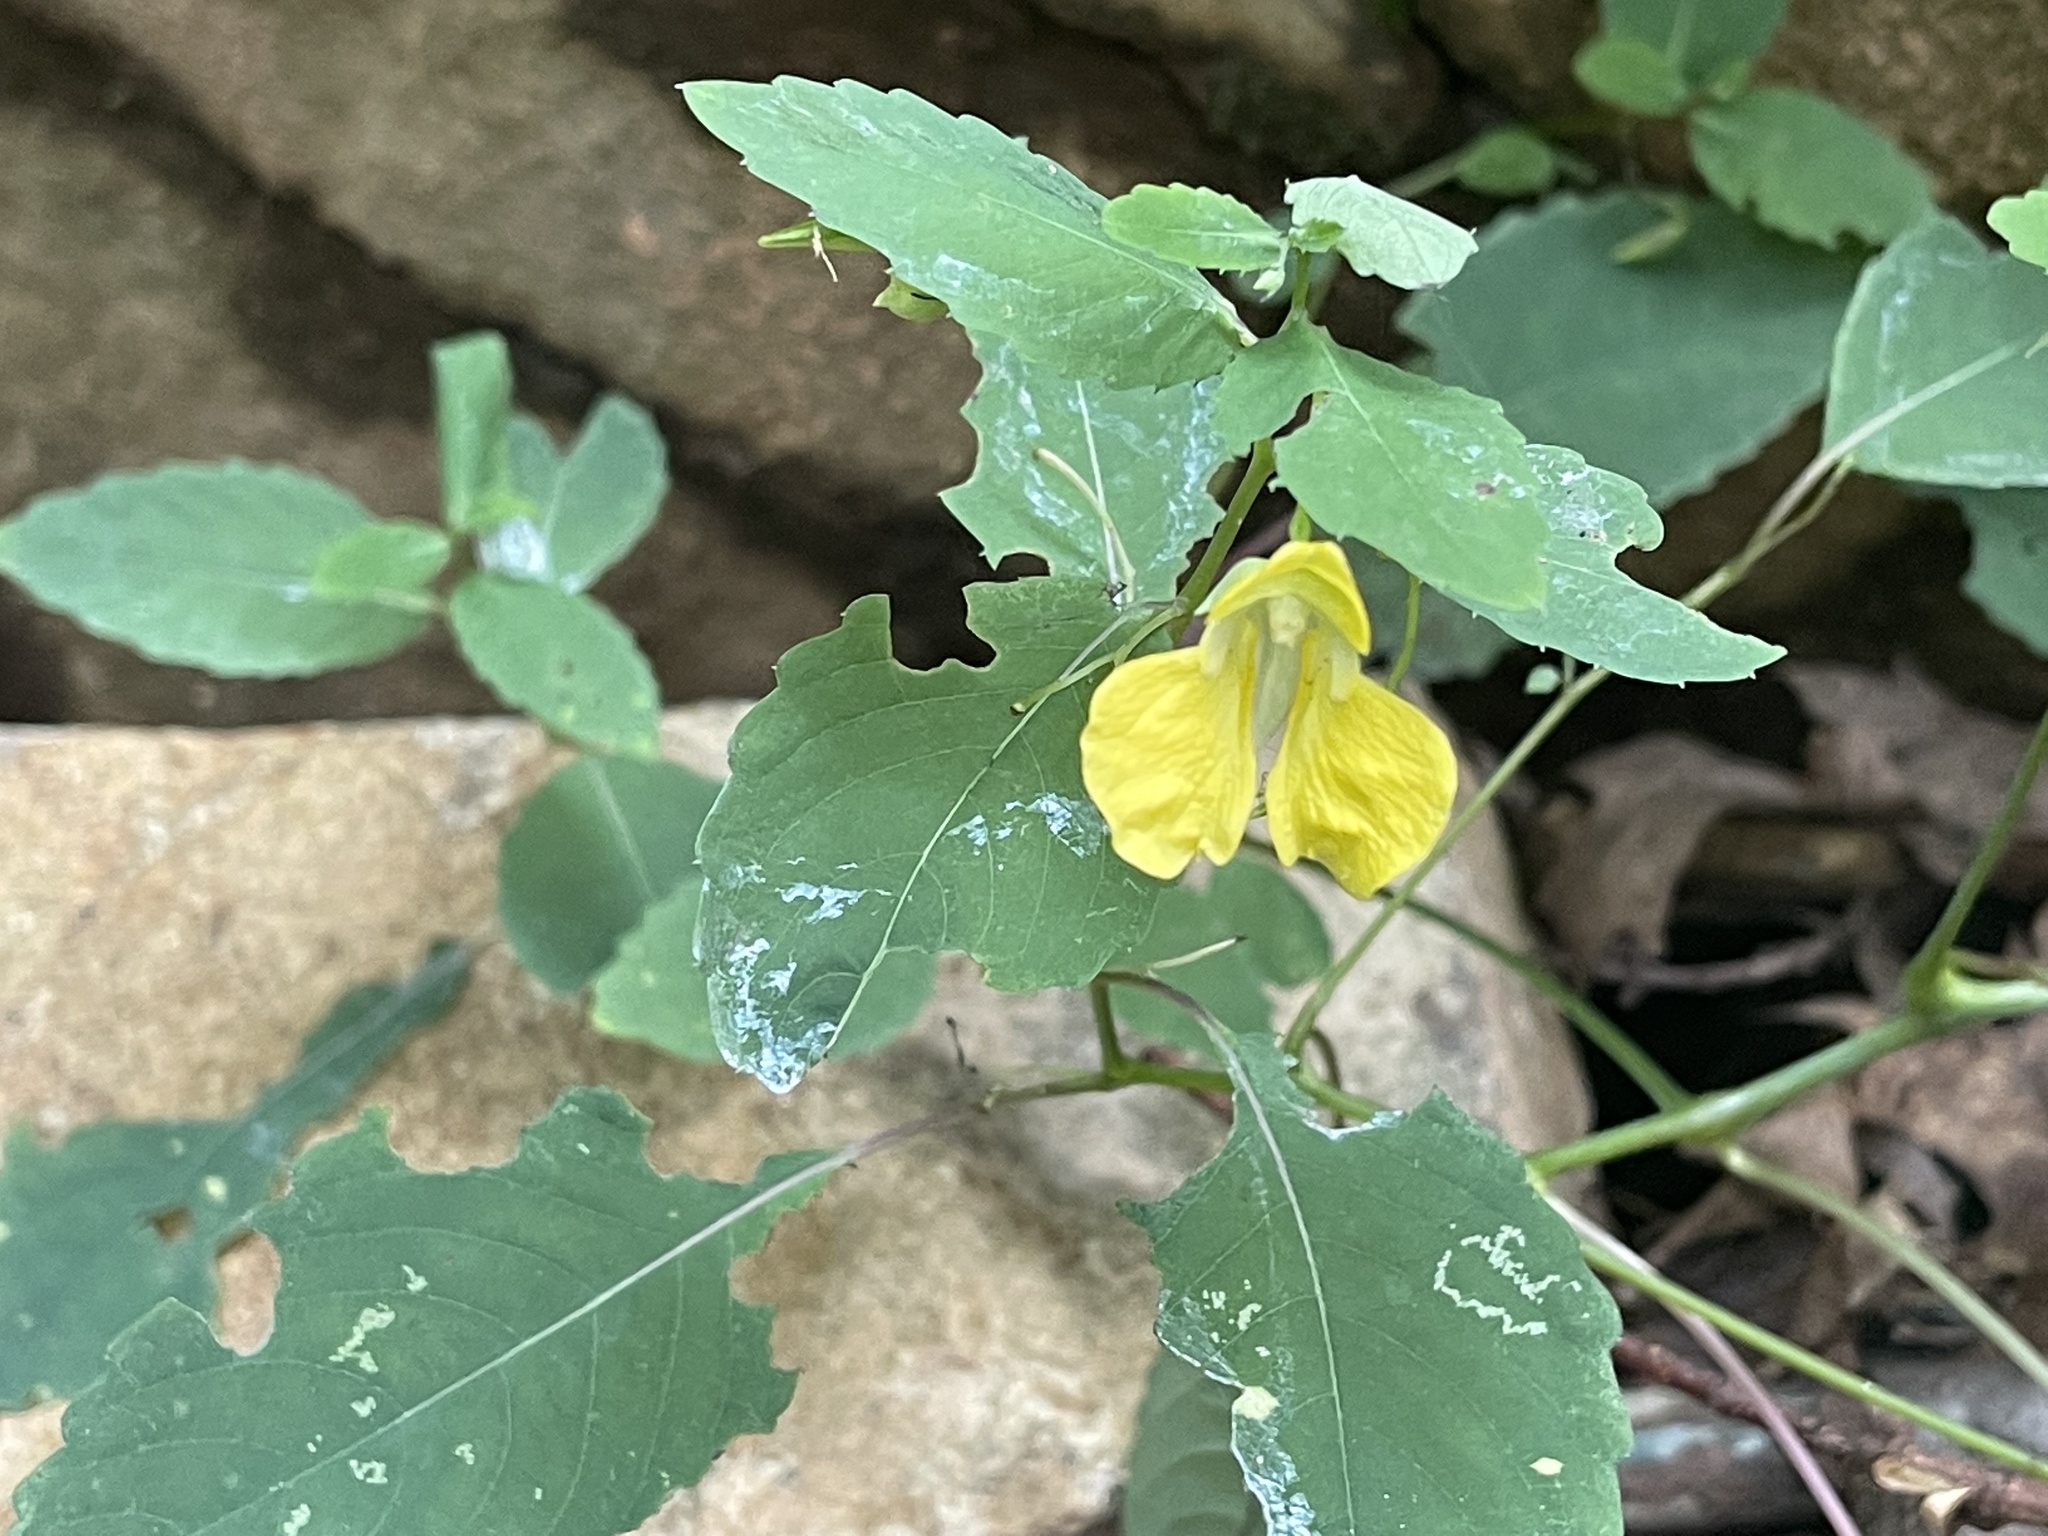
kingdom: Plantae
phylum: Tracheophyta
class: Magnoliopsida
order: Ericales
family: Balsaminaceae
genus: Impatiens
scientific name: Impatiens pallida
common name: Pale snapweed
